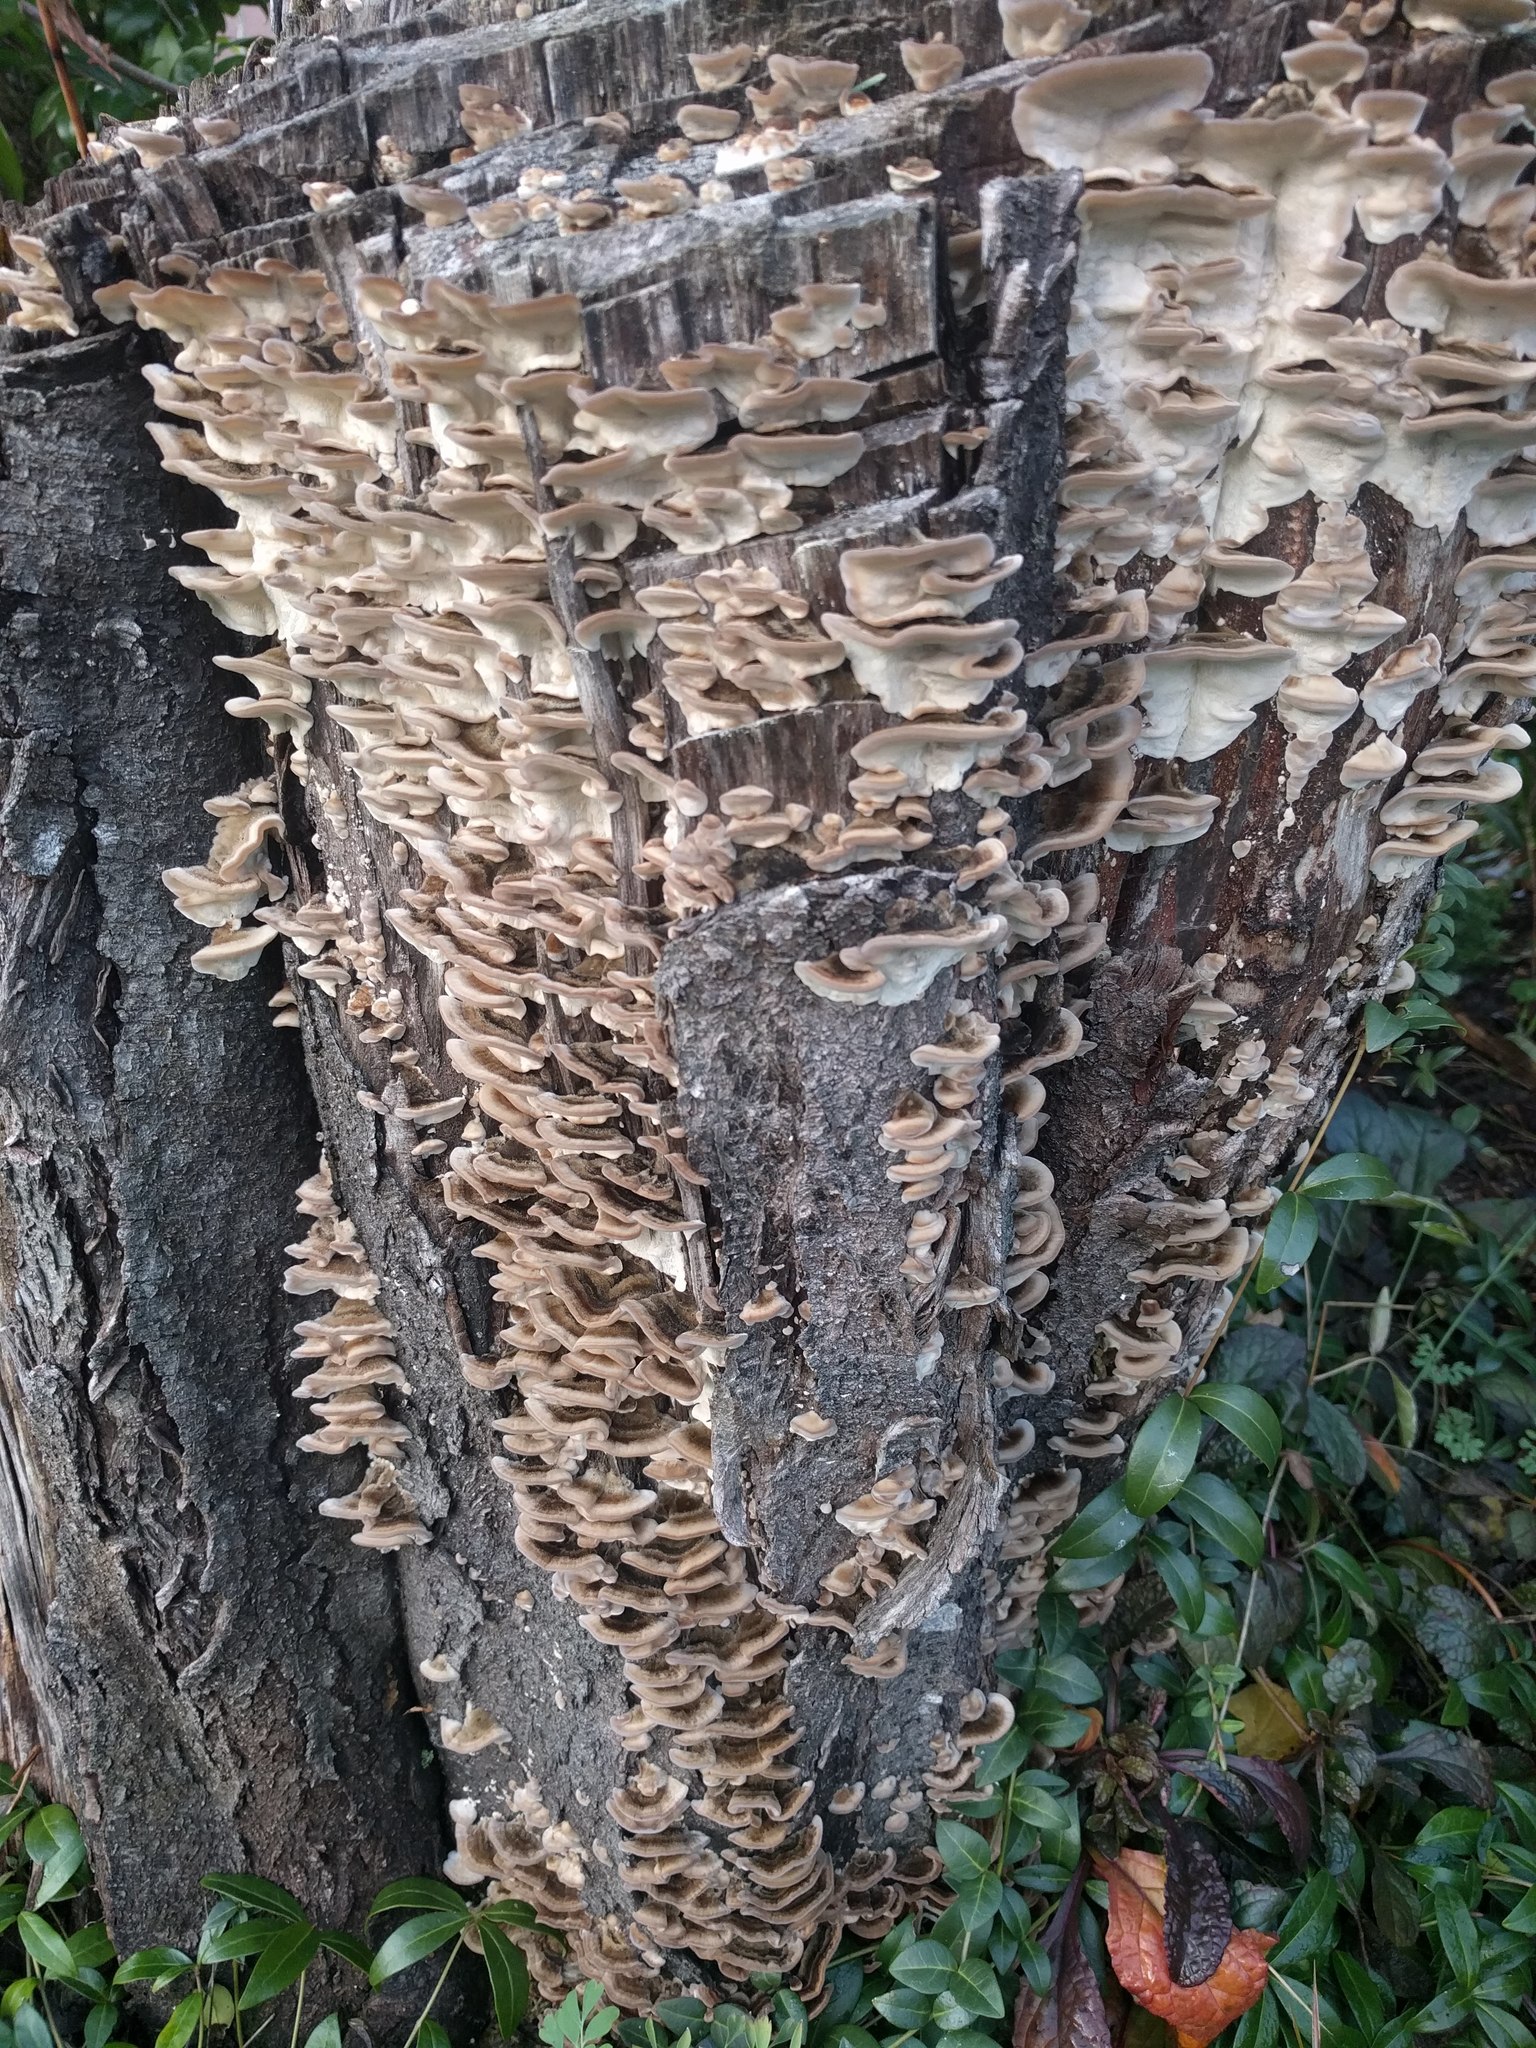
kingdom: Fungi
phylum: Basidiomycota
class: Agaricomycetes
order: Polyporales
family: Polyporaceae
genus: Trametes
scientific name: Trametes versicolor
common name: Turkeytail
